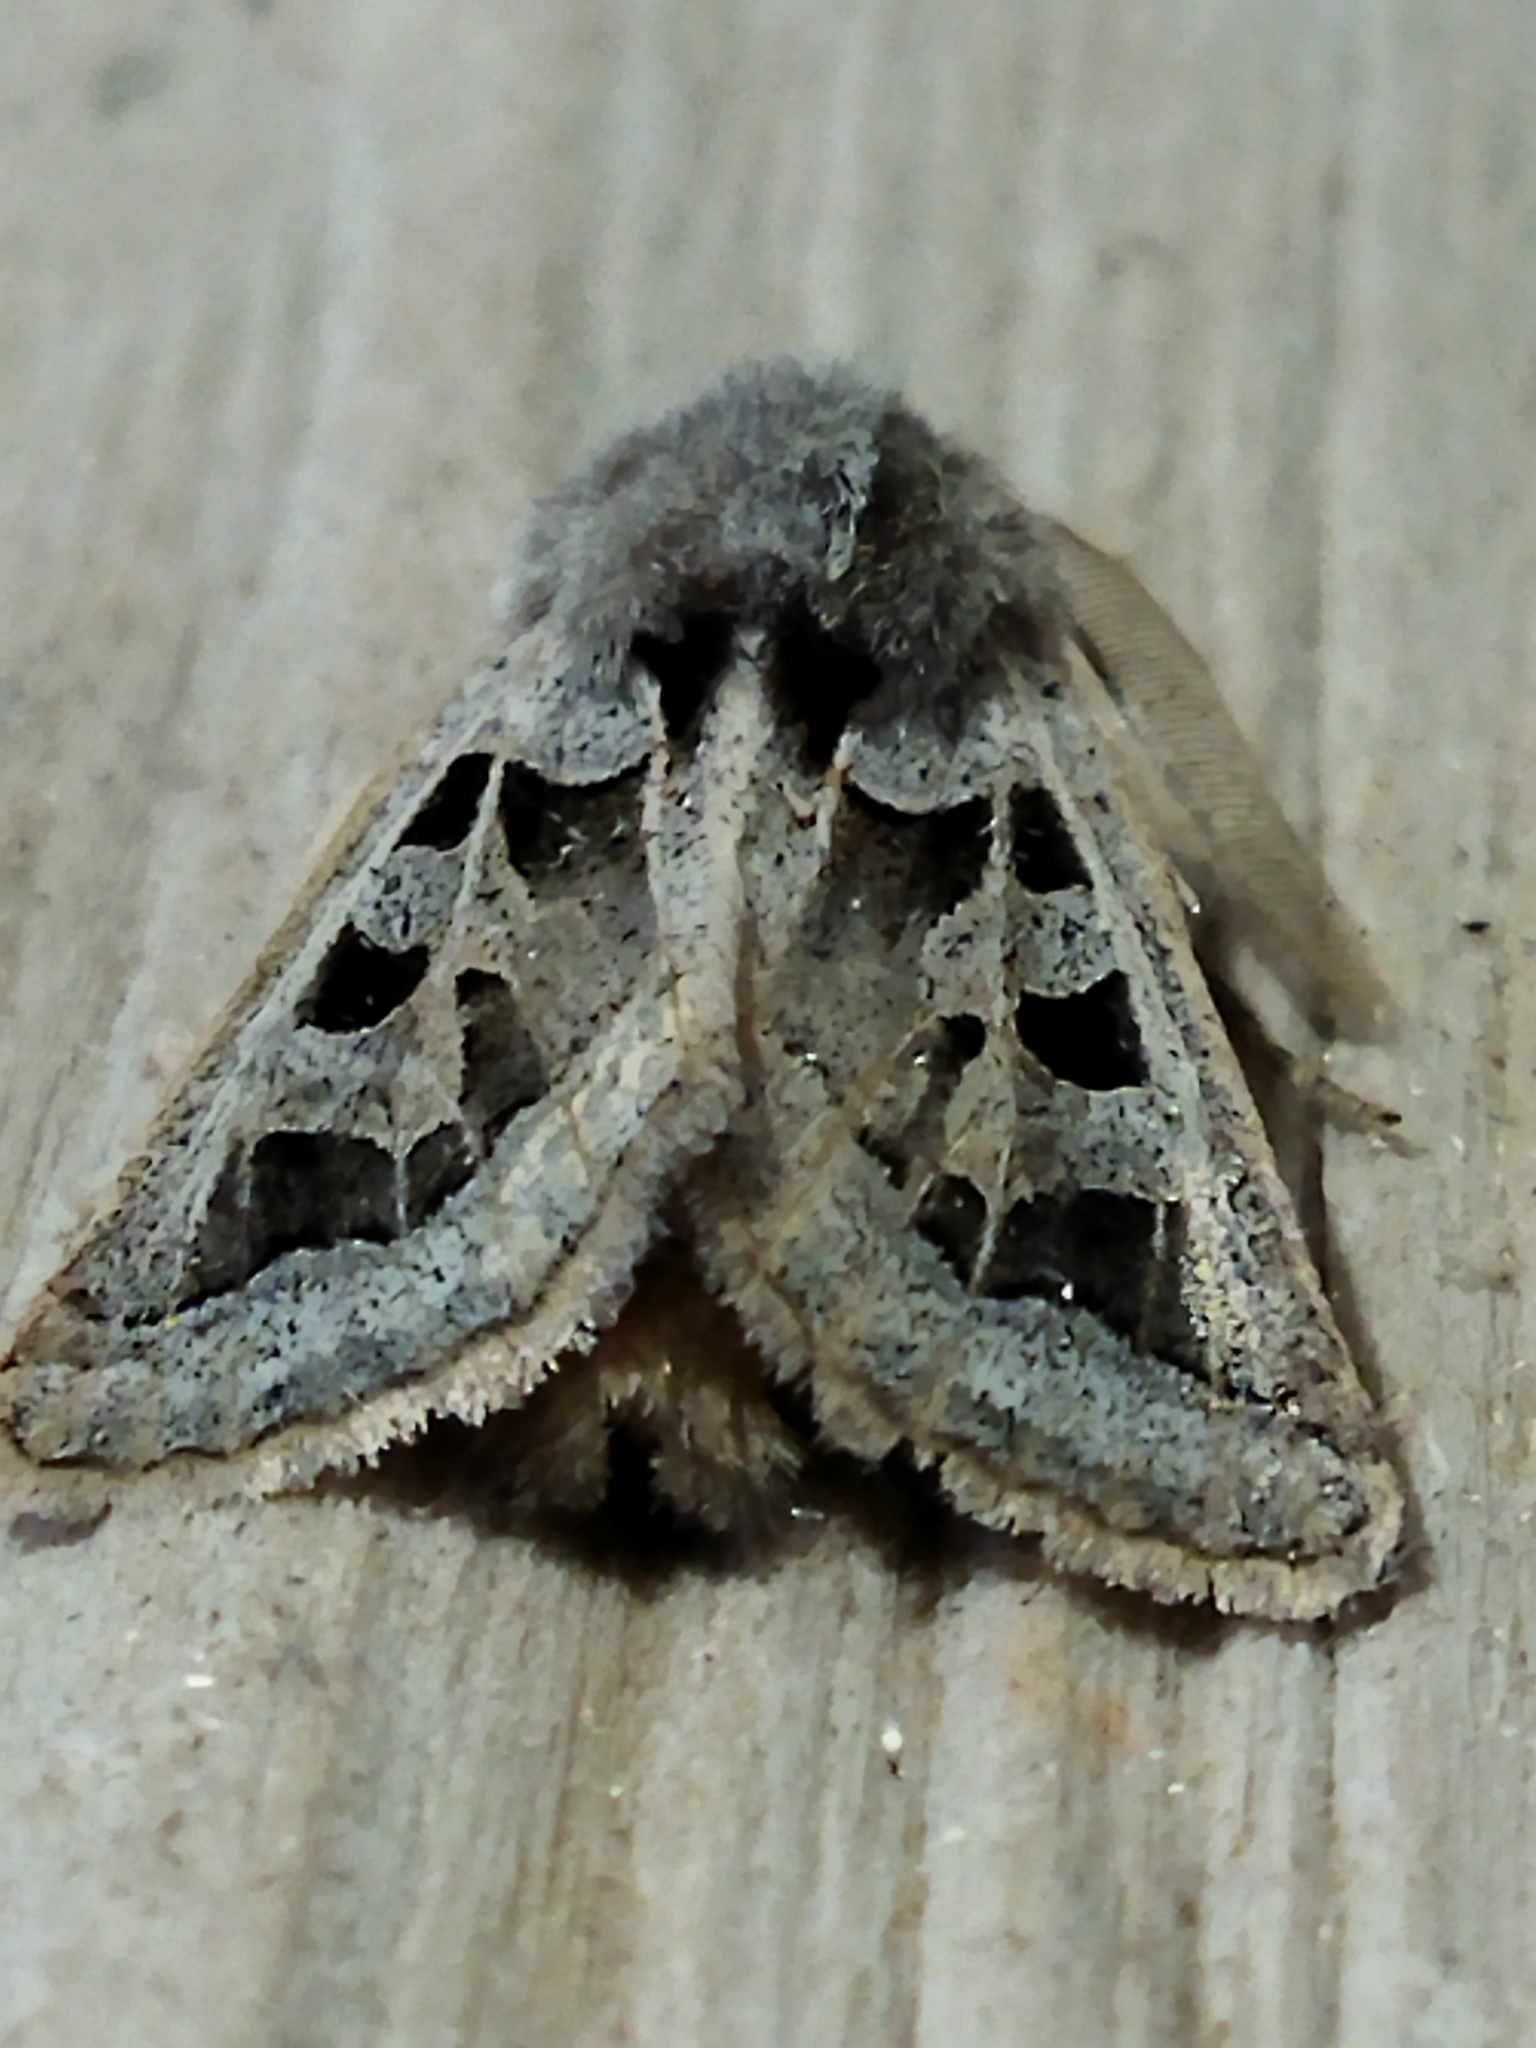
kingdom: Animalia
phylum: Arthropoda
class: Insecta
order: Lepidoptera
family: Noctuidae
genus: Episema
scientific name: Episema glaucina
